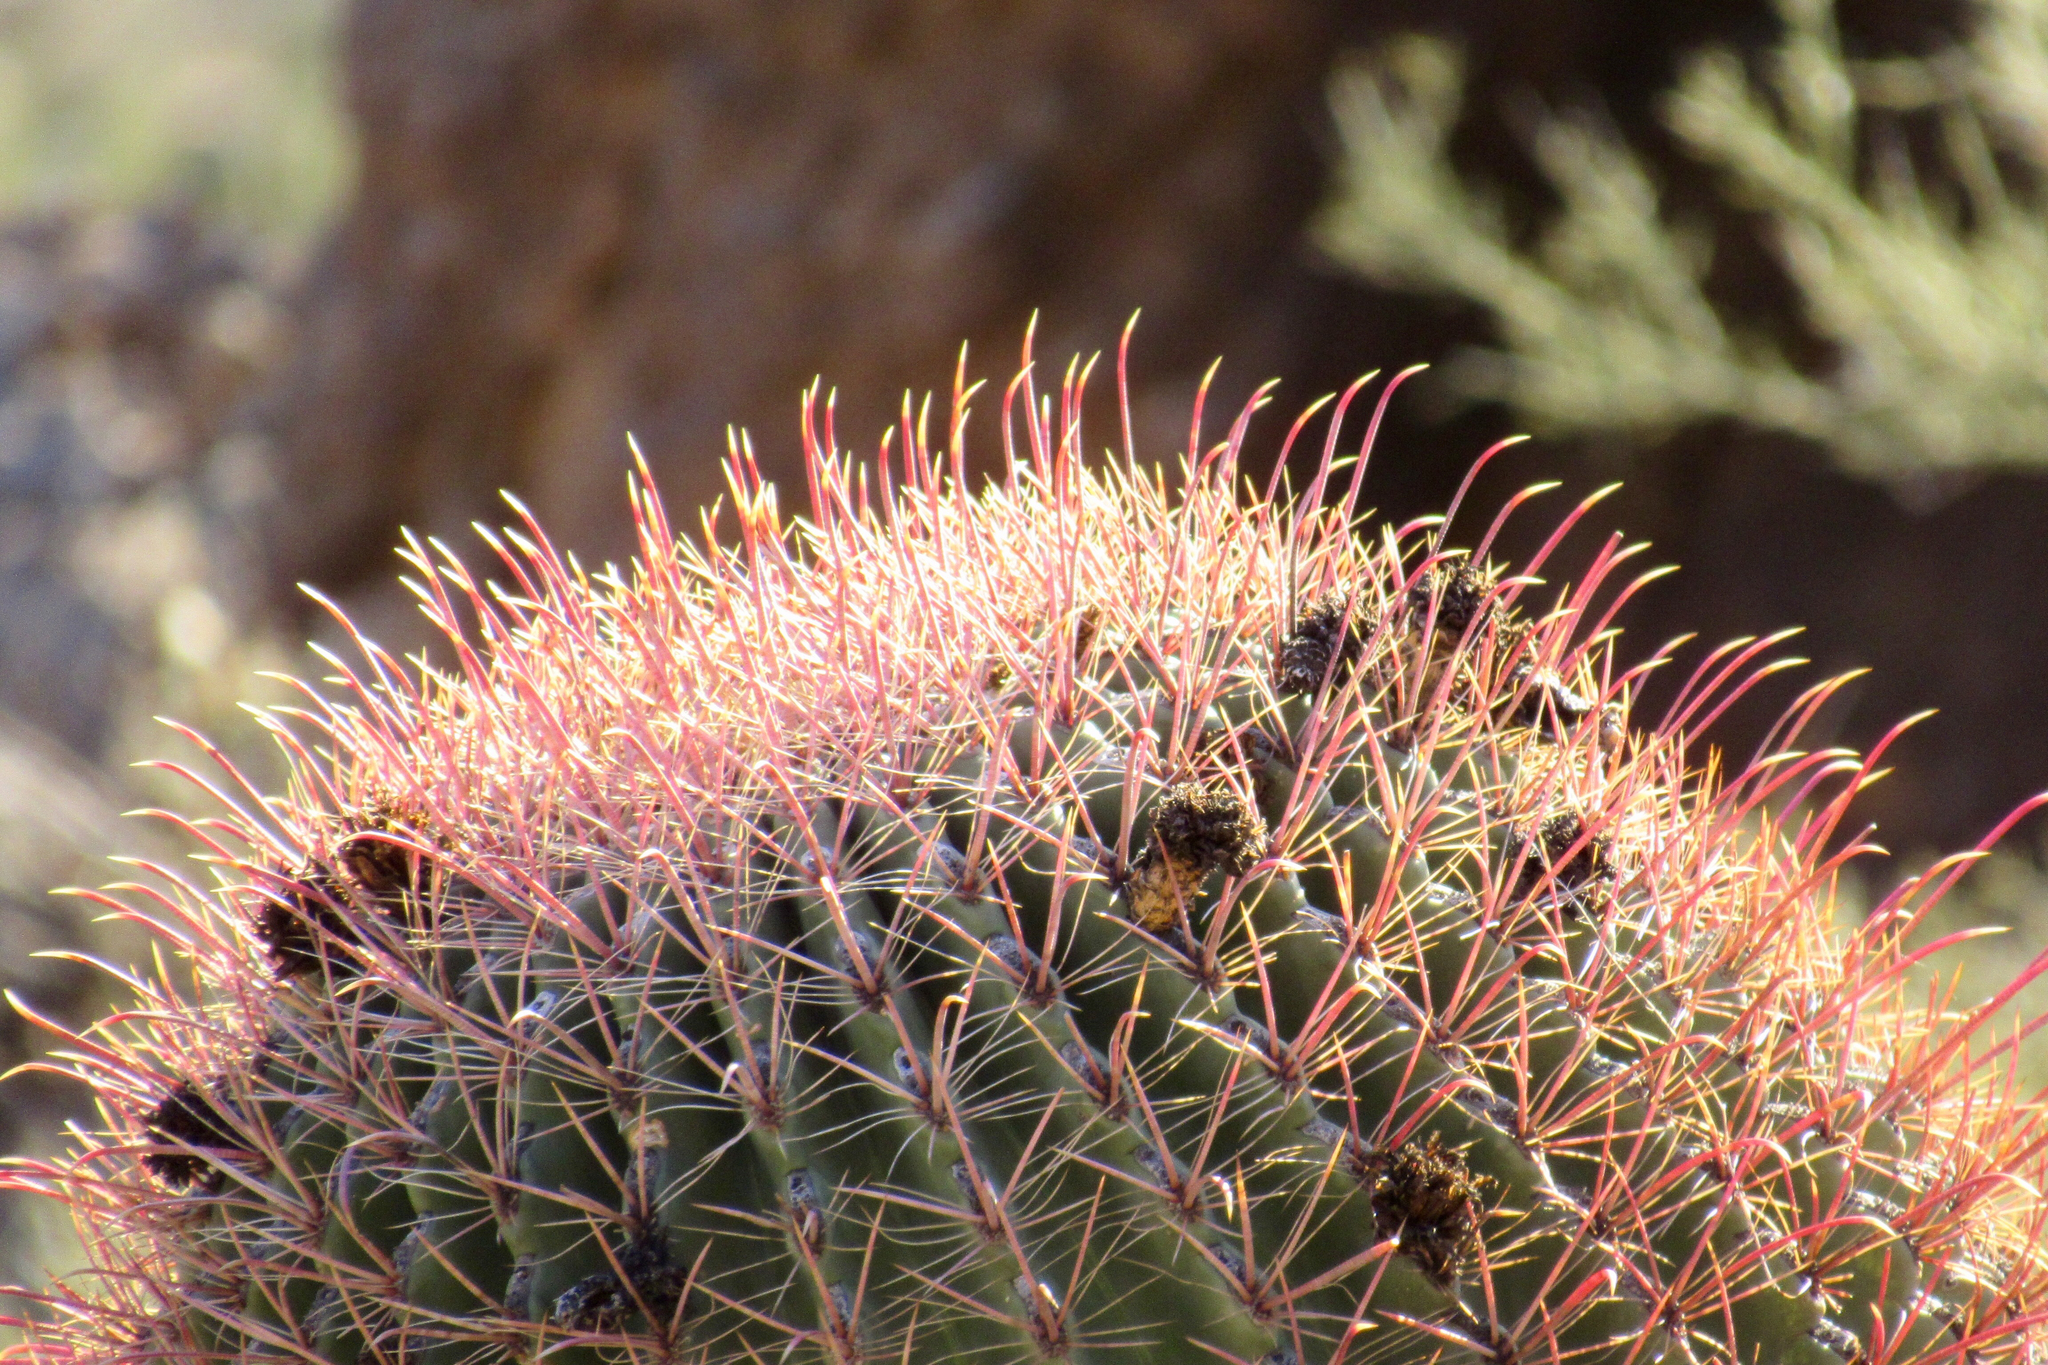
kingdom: Plantae
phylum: Tracheophyta
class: Magnoliopsida
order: Caryophyllales
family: Cactaceae
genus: Ferocactus
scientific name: Ferocactus cylindraceus
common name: California barrel cactus
